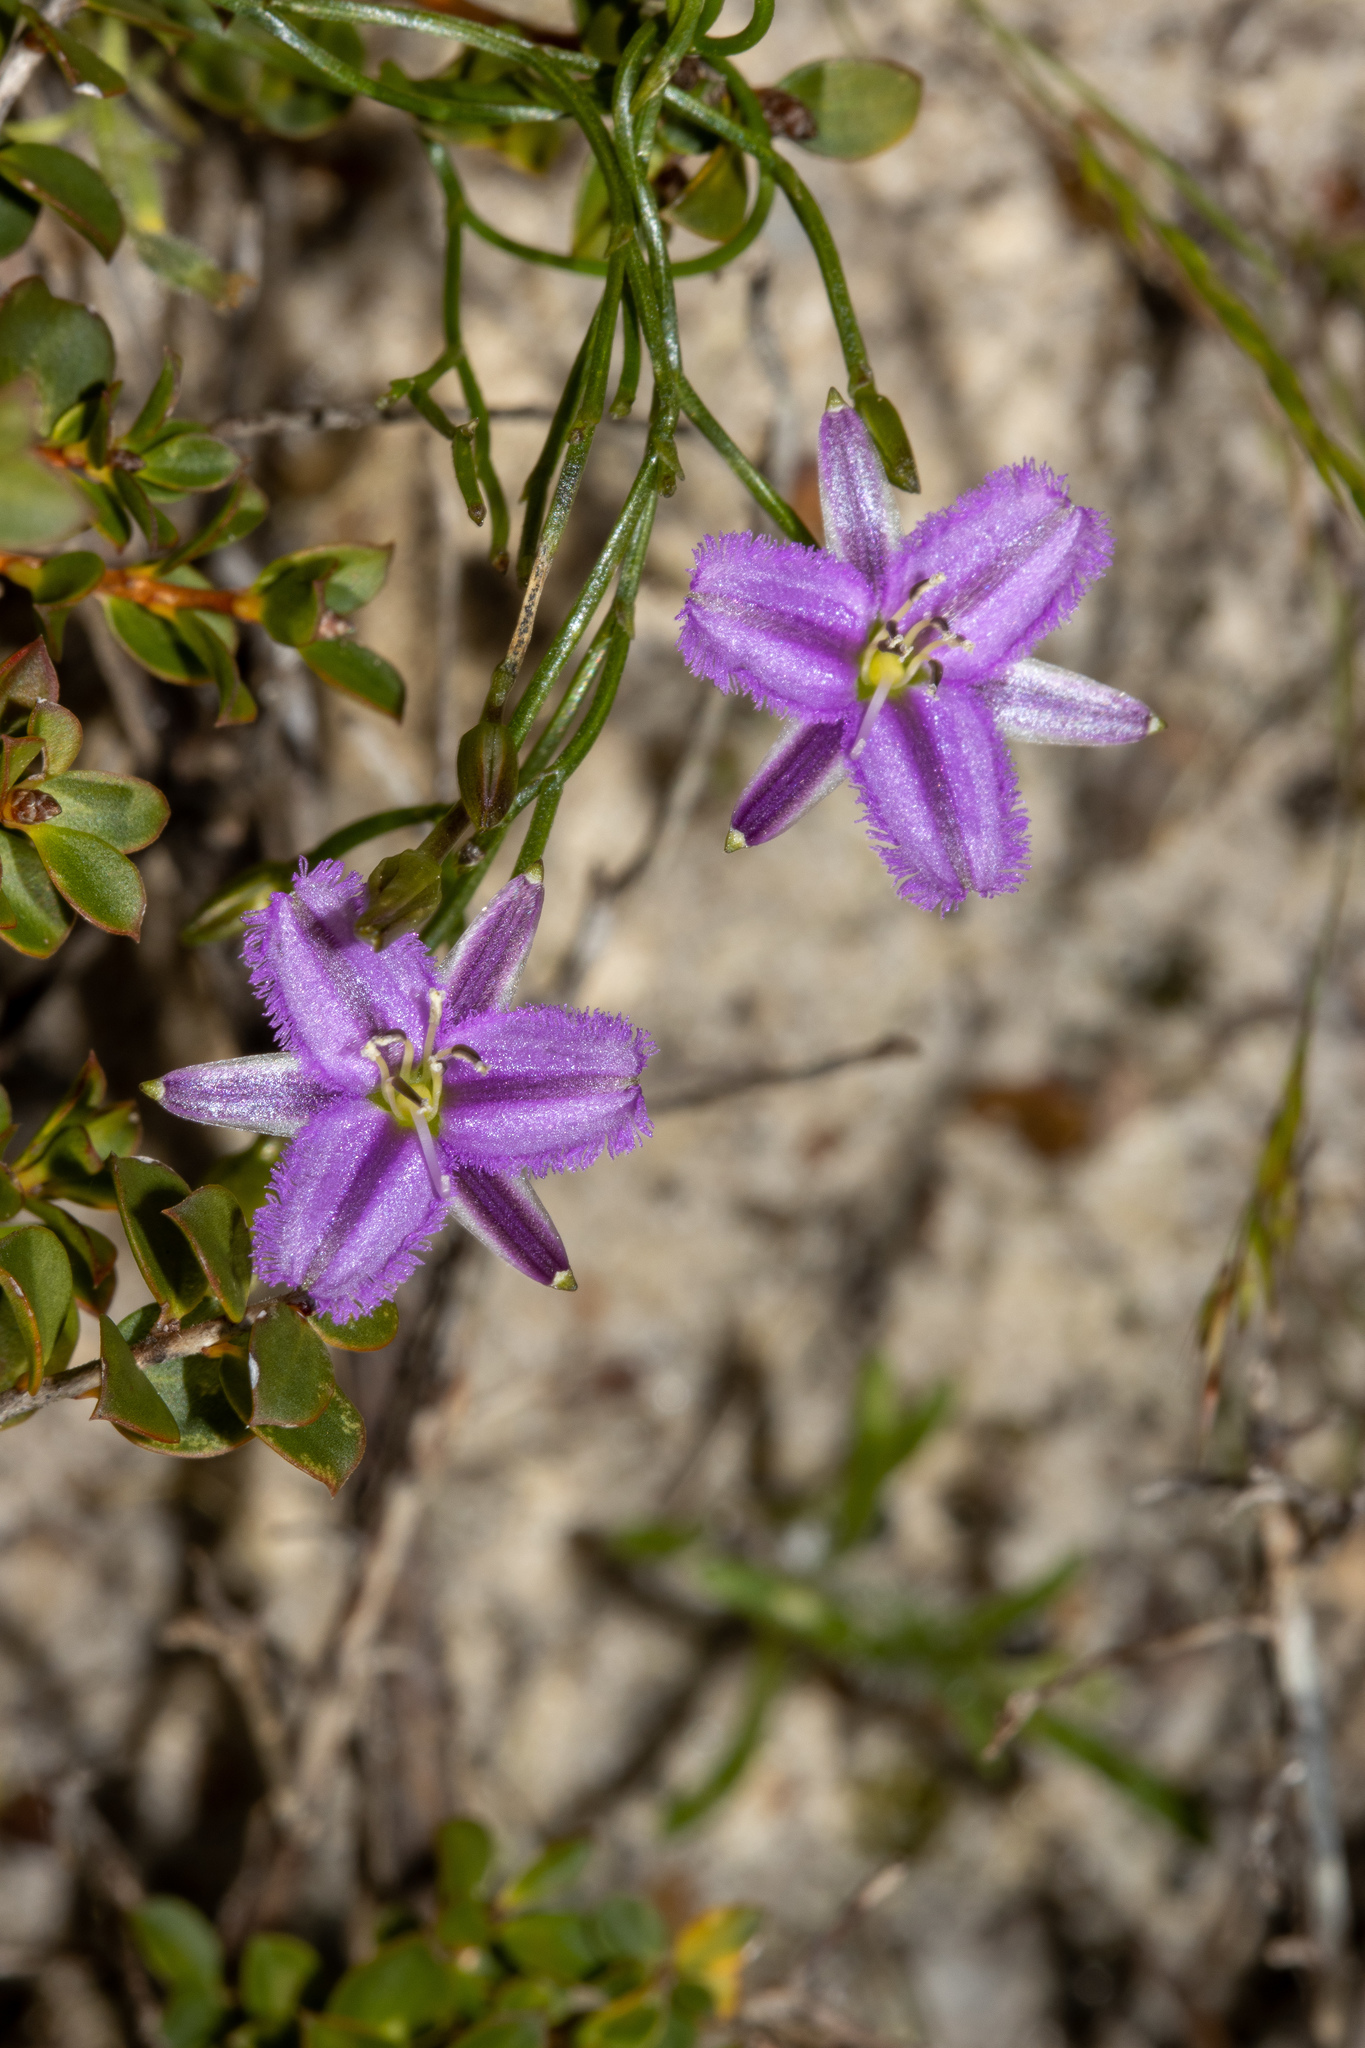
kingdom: Plantae
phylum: Tracheophyta
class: Liliopsida
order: Asparagales
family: Asparagaceae
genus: Thysanotus
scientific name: Thysanotus patersonii
